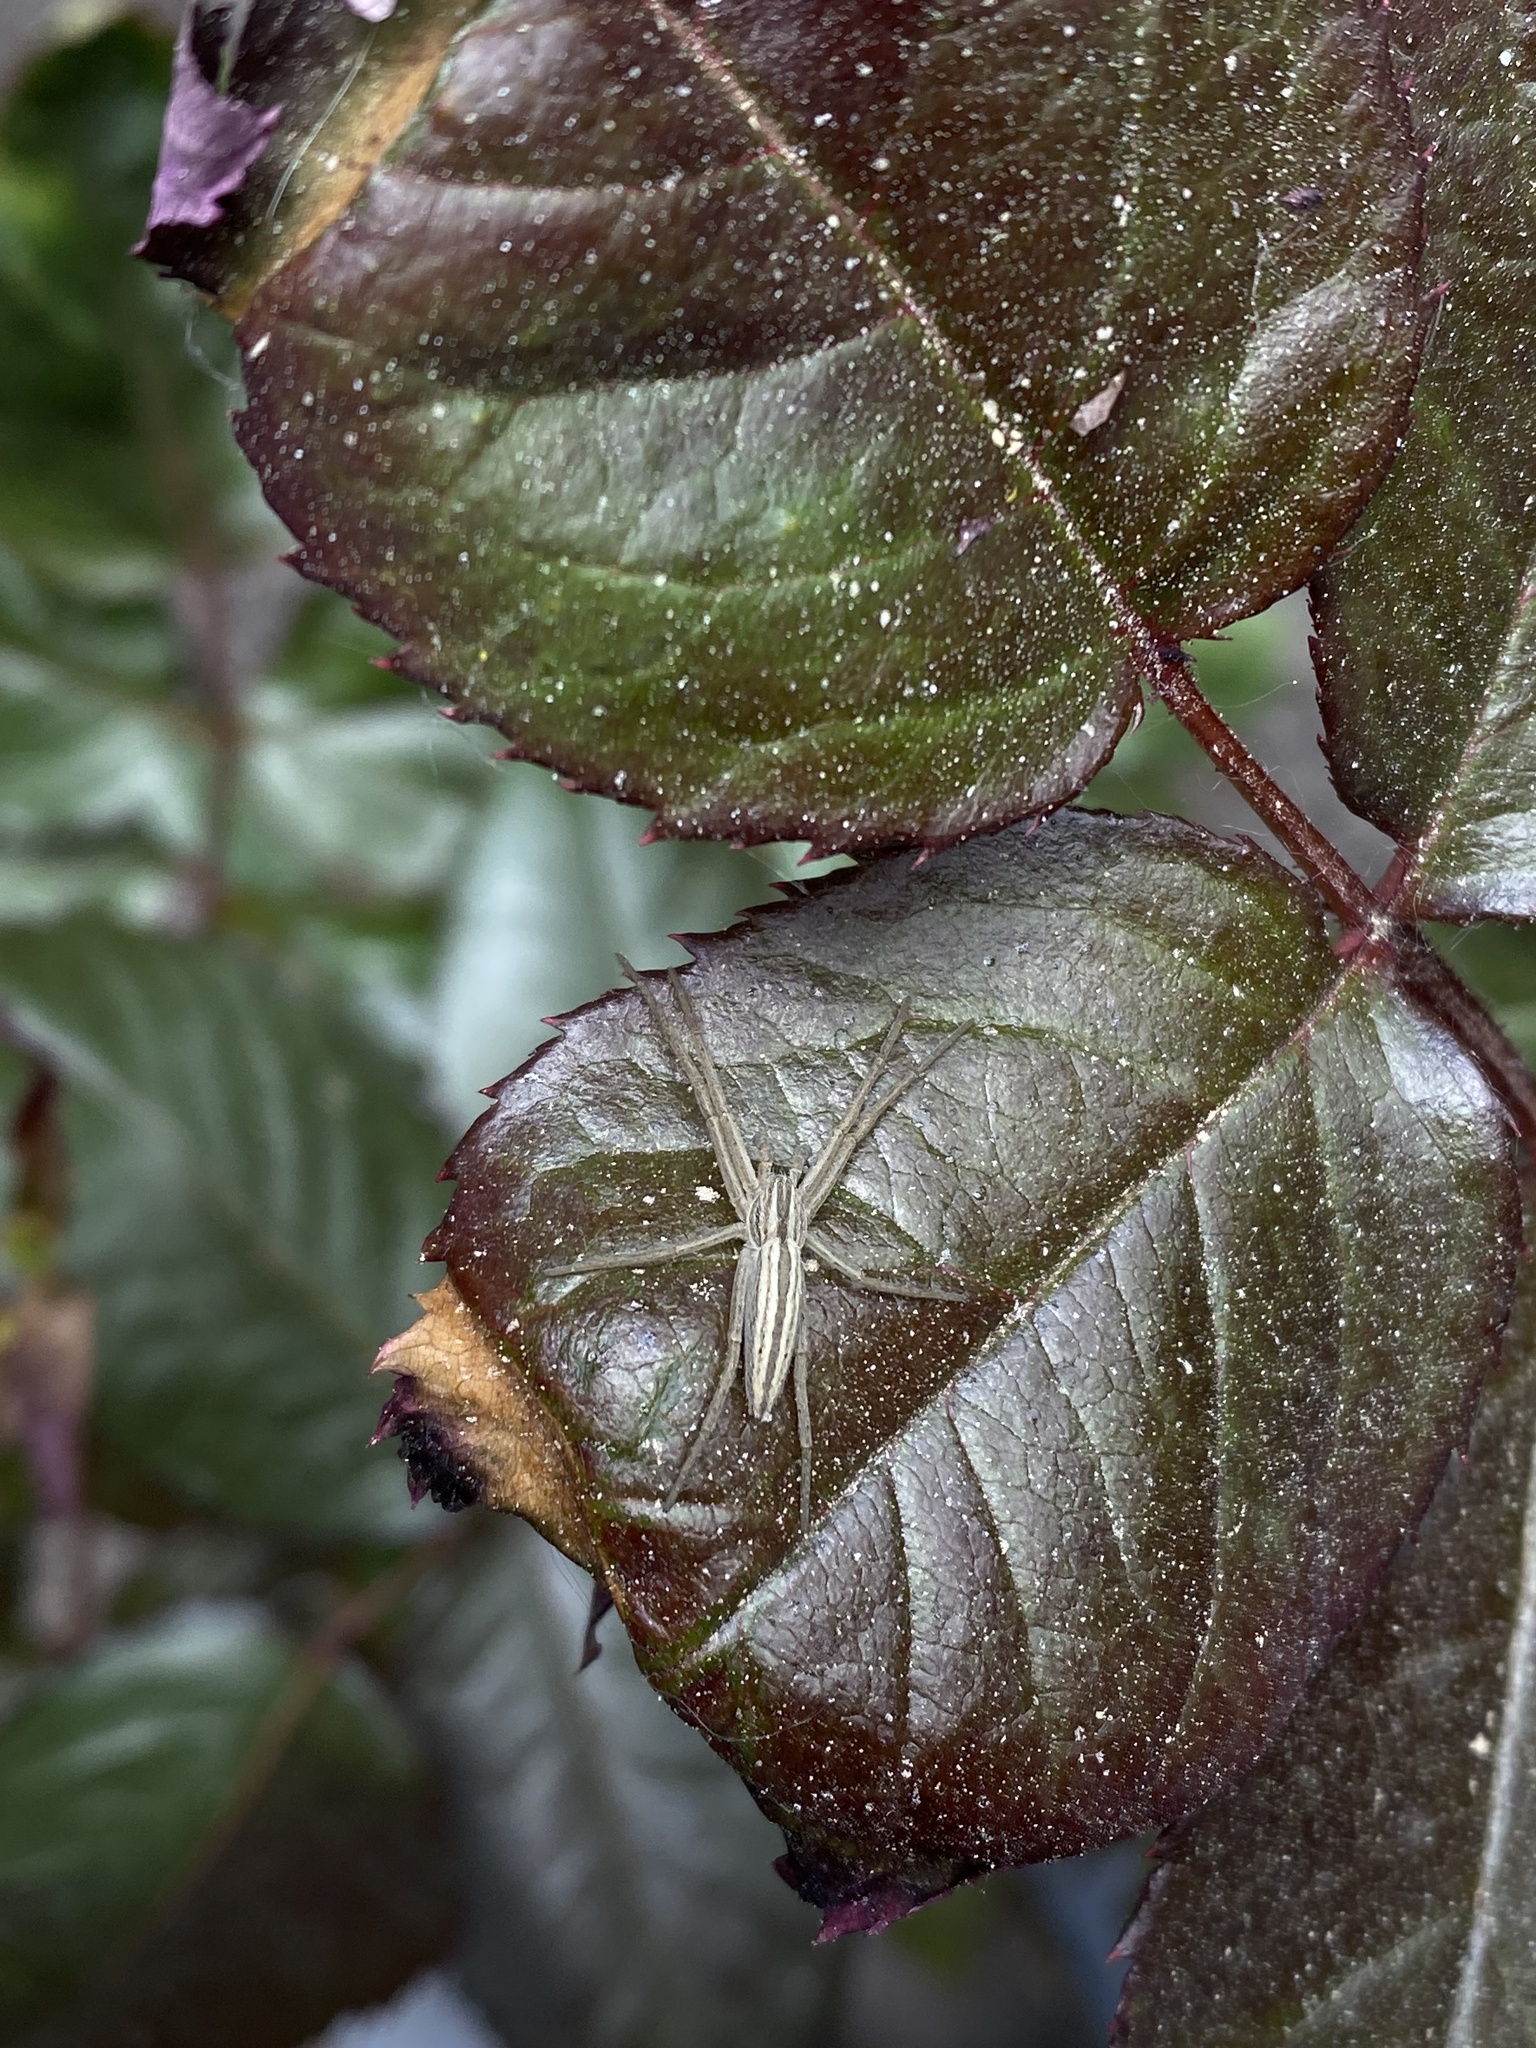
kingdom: Animalia
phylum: Arthropoda
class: Arachnida
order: Araneae
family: Philodromidae
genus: Tibellus
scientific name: Tibellus
